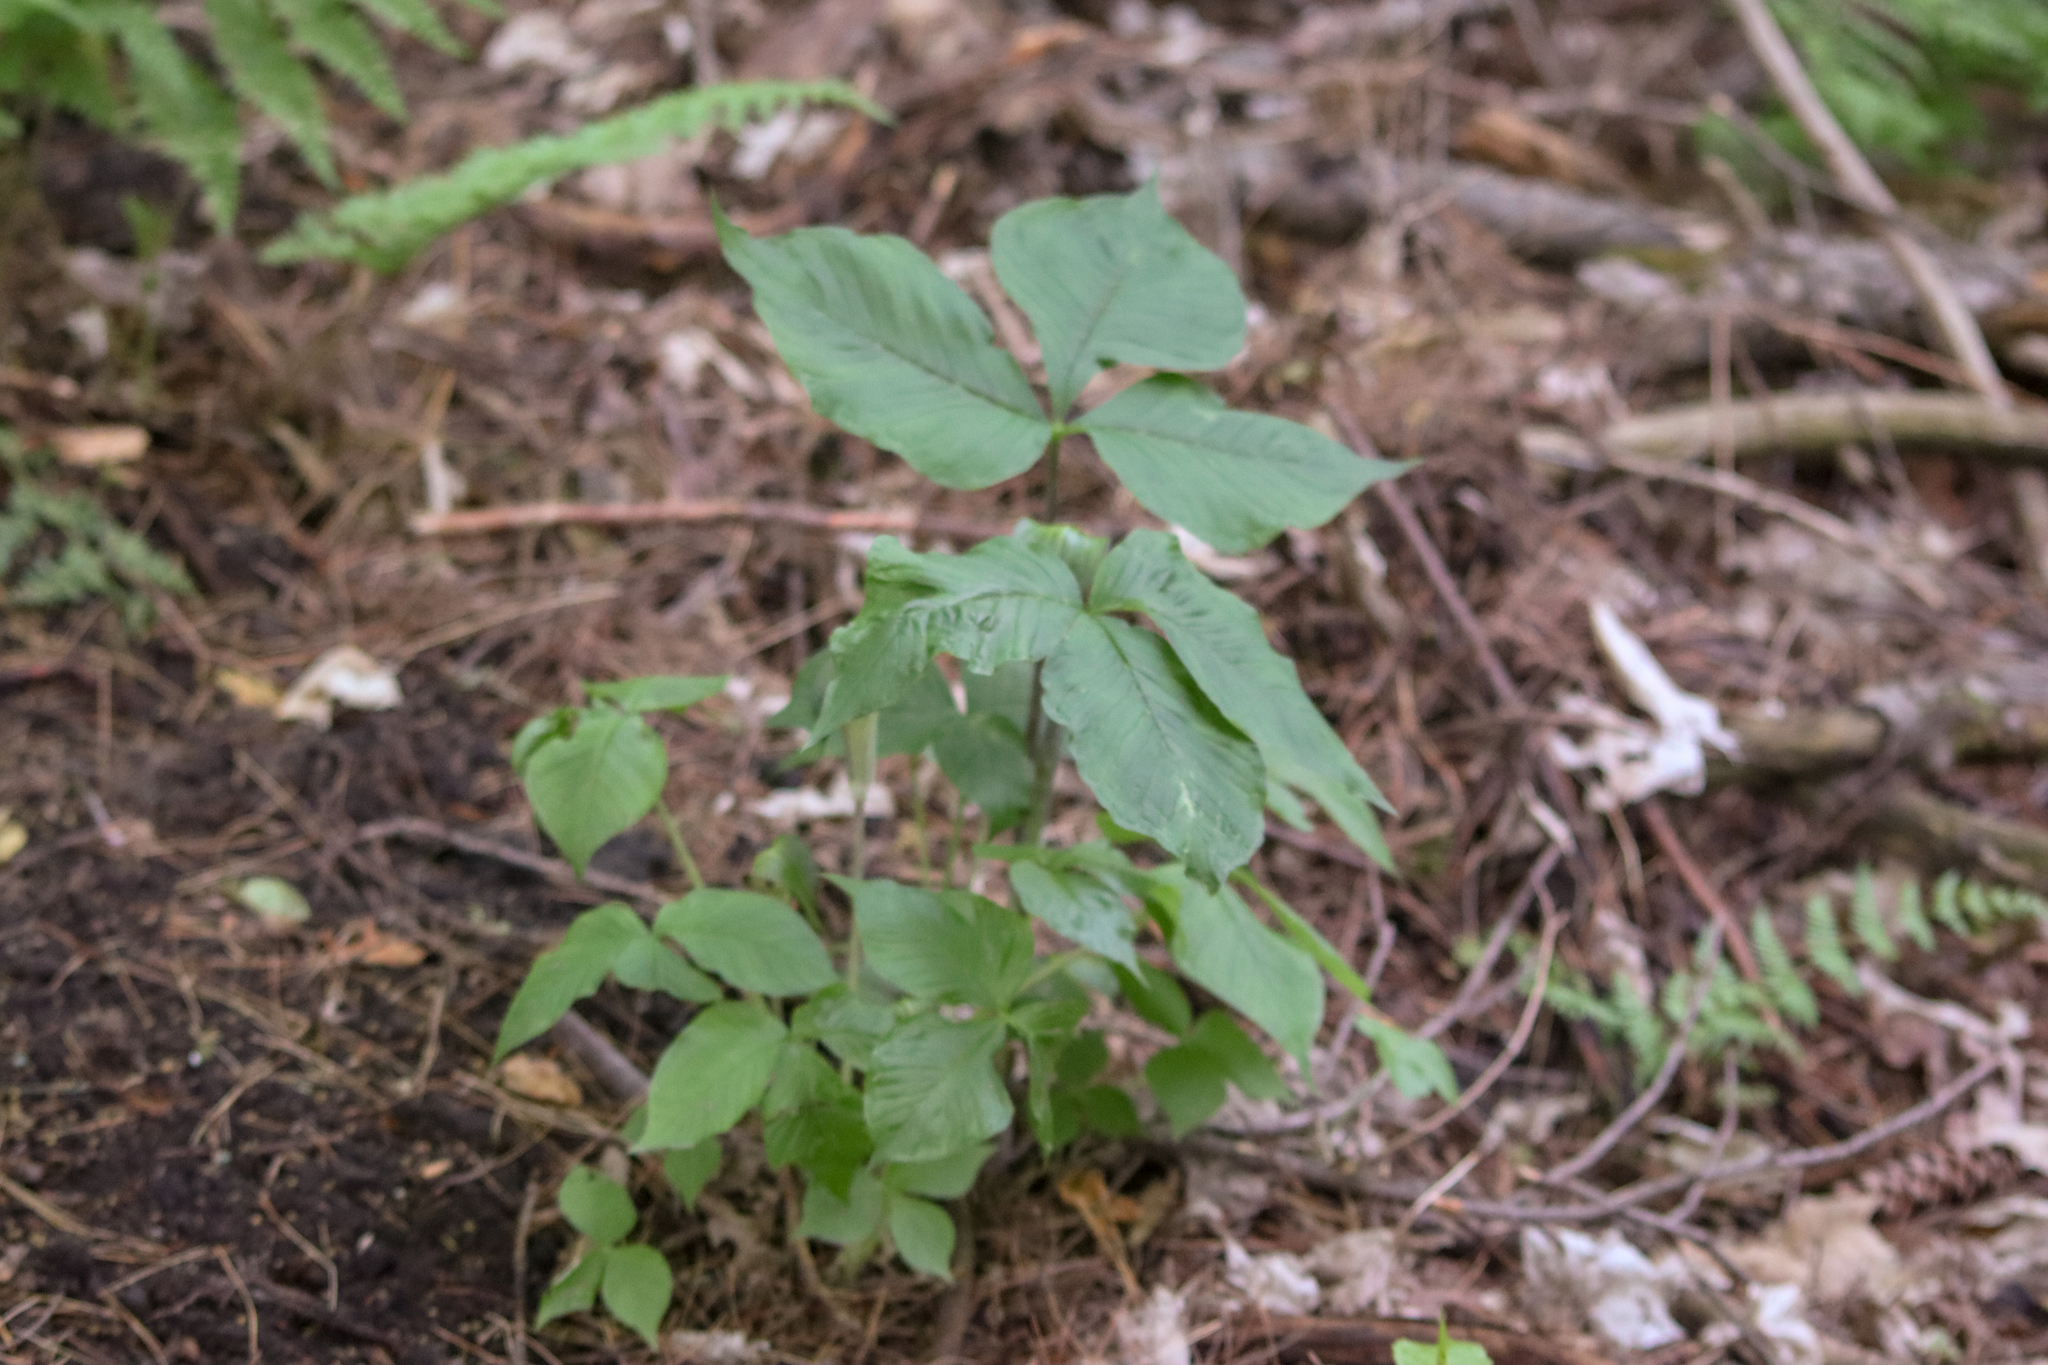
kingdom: Plantae
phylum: Tracheophyta
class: Liliopsida
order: Alismatales
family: Araceae
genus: Arisaema
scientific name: Arisaema triphyllum
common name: Jack-in-the-pulpit
